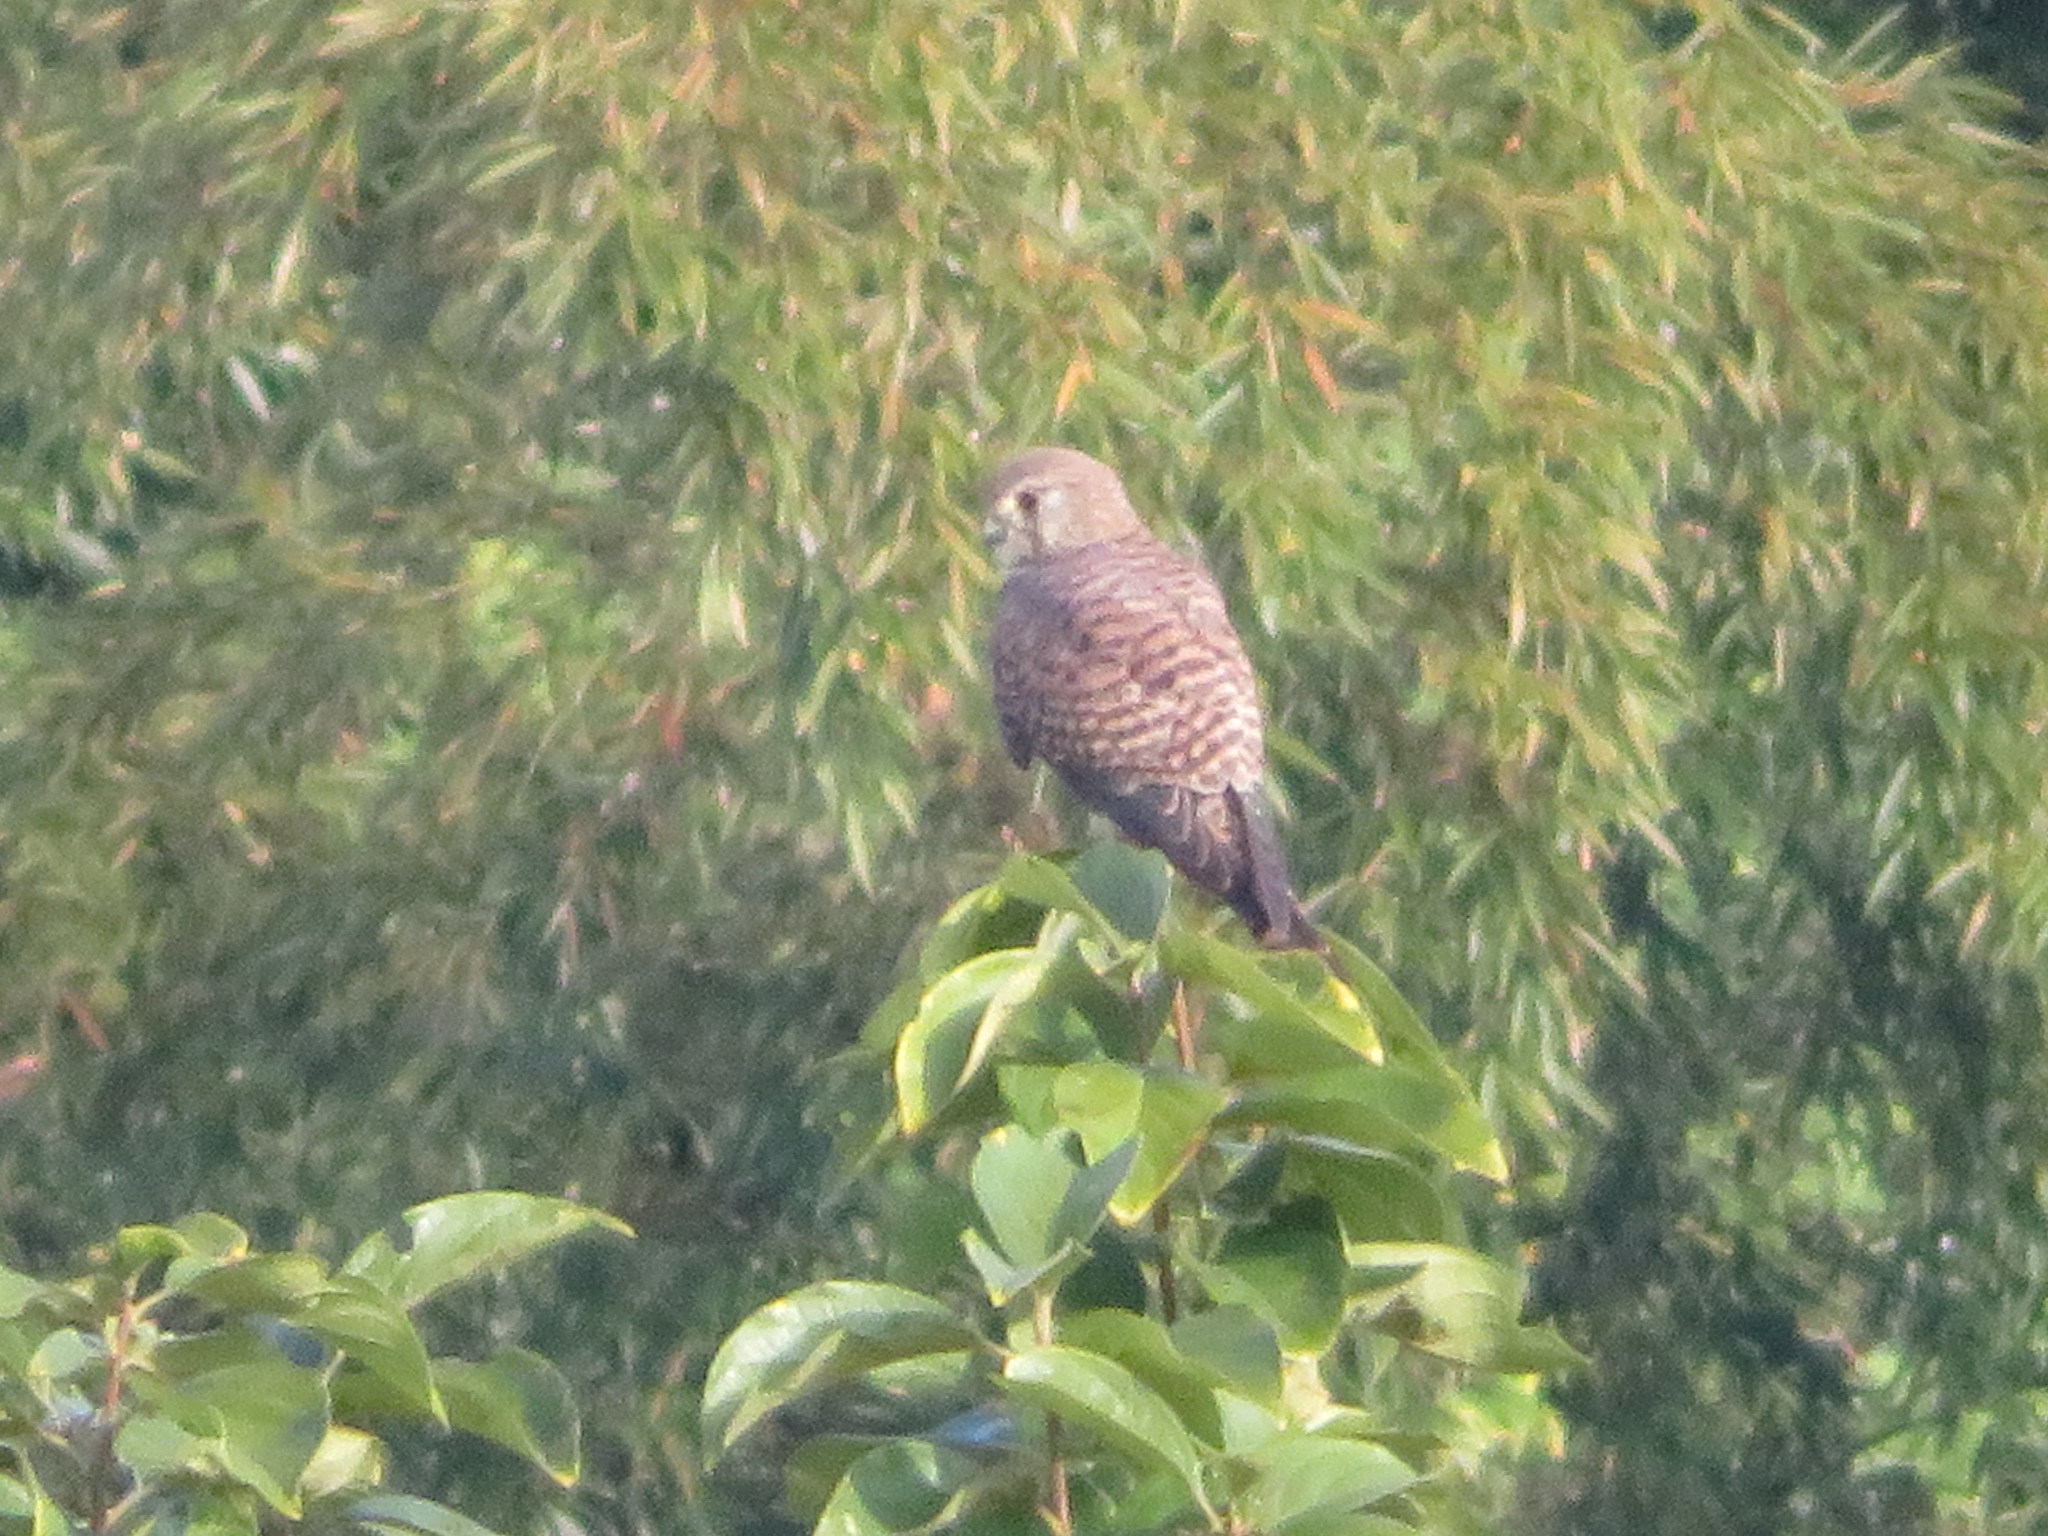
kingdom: Animalia
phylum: Chordata
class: Aves
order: Falconiformes
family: Falconidae
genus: Falco
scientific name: Falco tinnunculus
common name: Common kestrel
